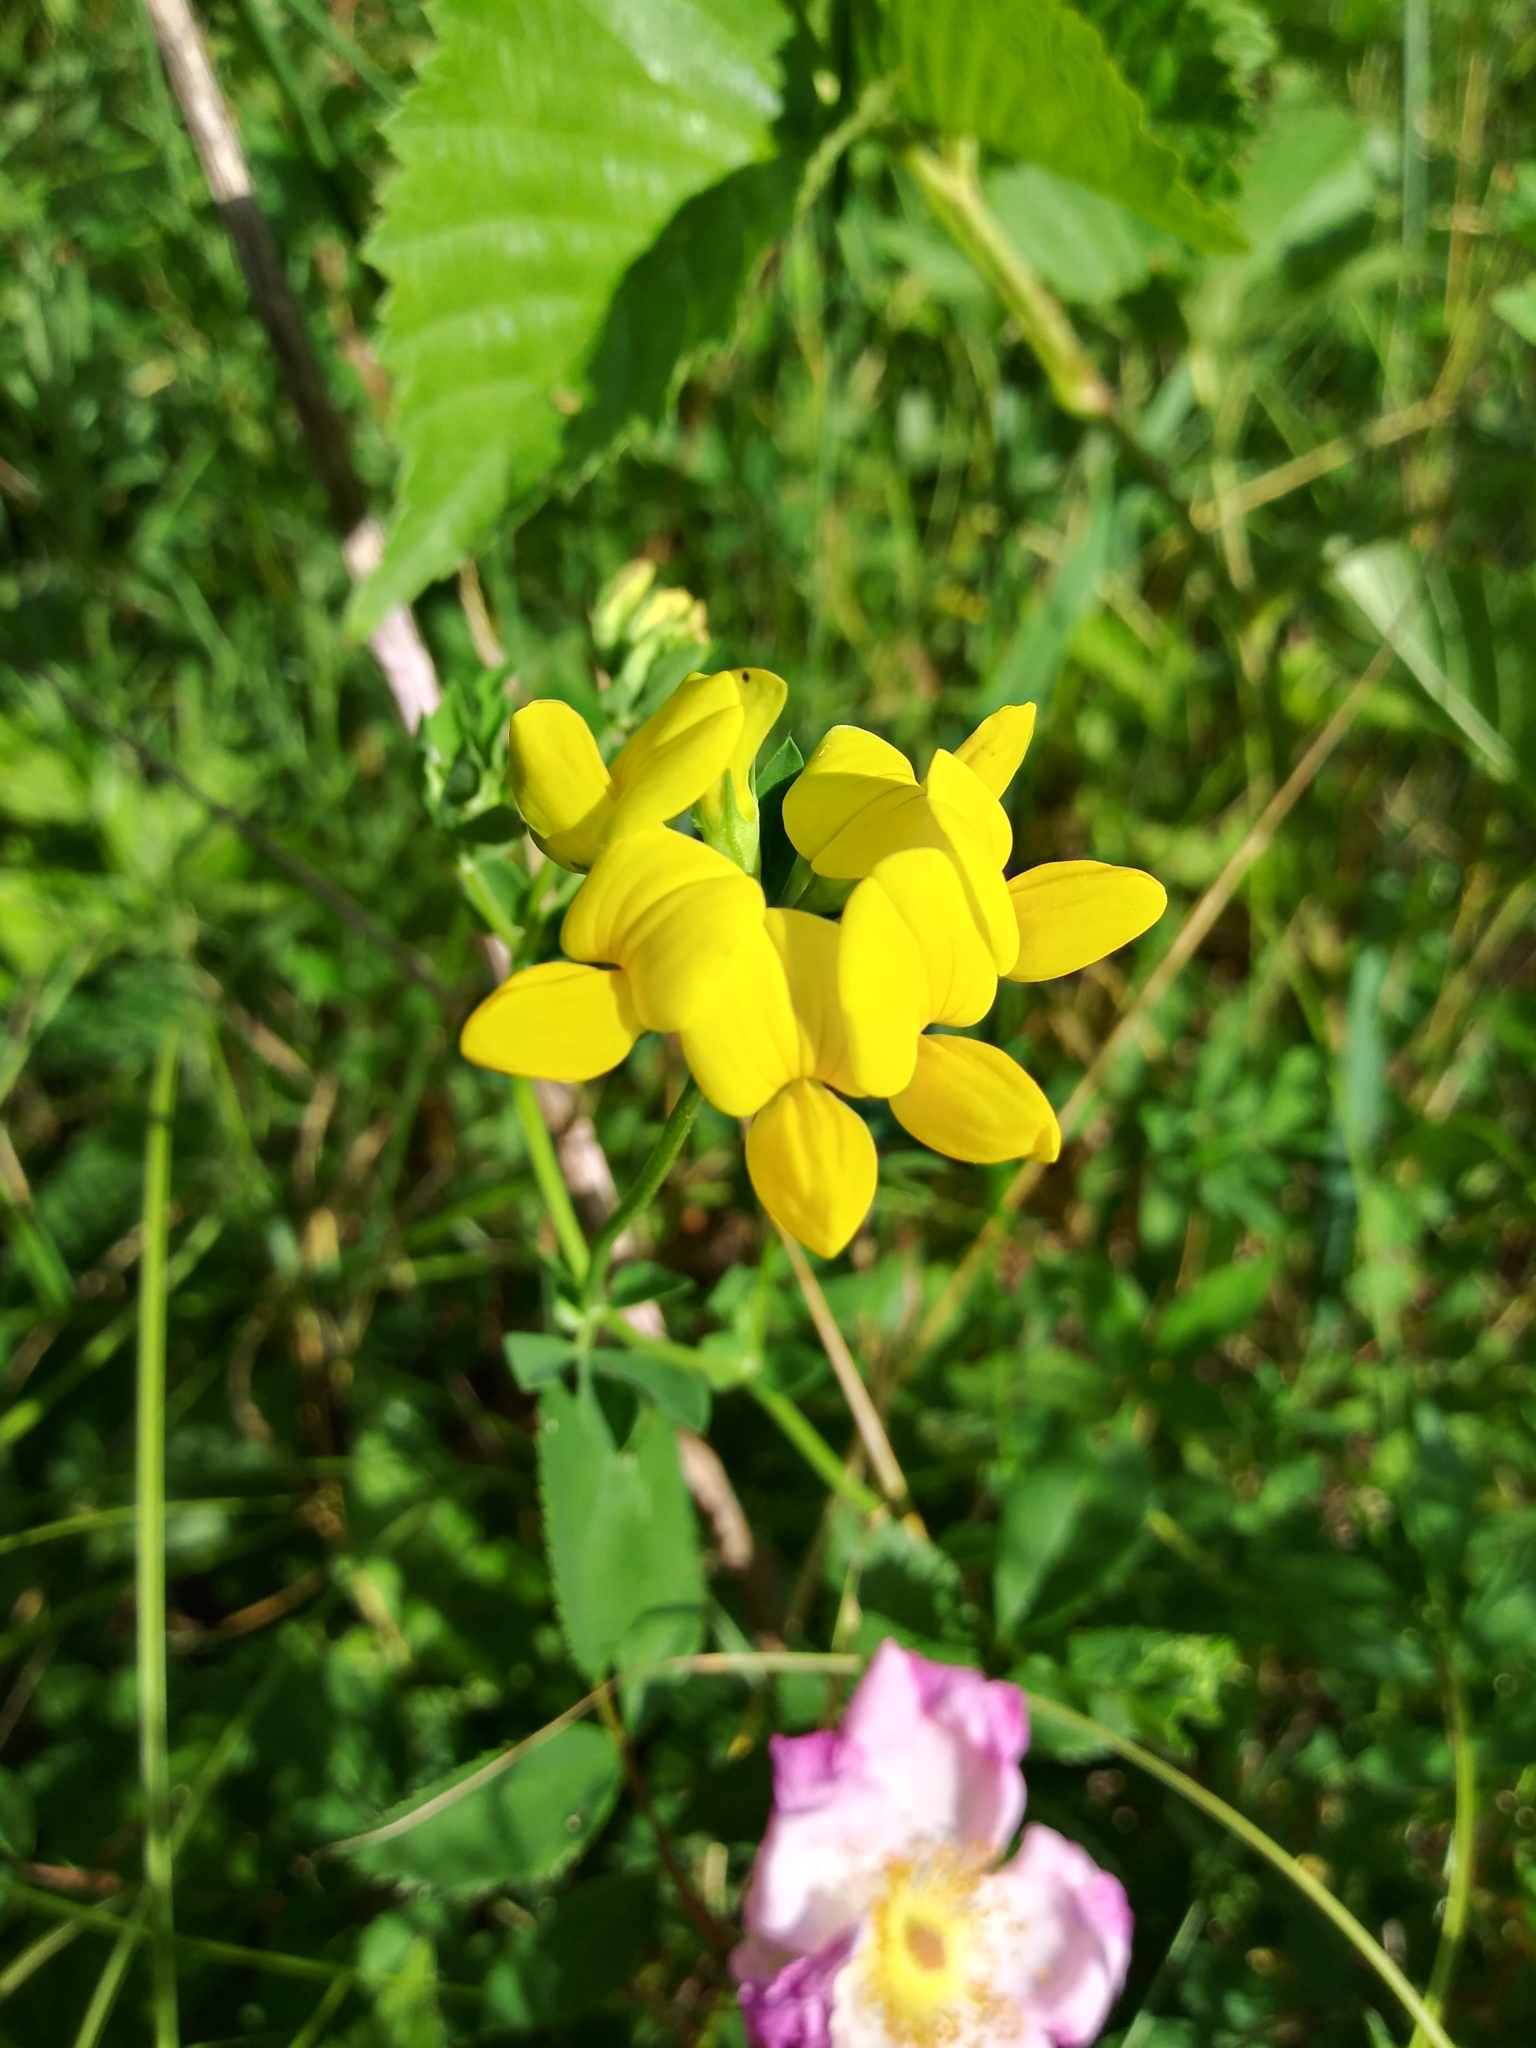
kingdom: Plantae
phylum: Tracheophyta
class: Magnoliopsida
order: Fabales
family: Fabaceae
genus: Lotus
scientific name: Lotus corniculatus
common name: Common bird's-foot-trefoil
